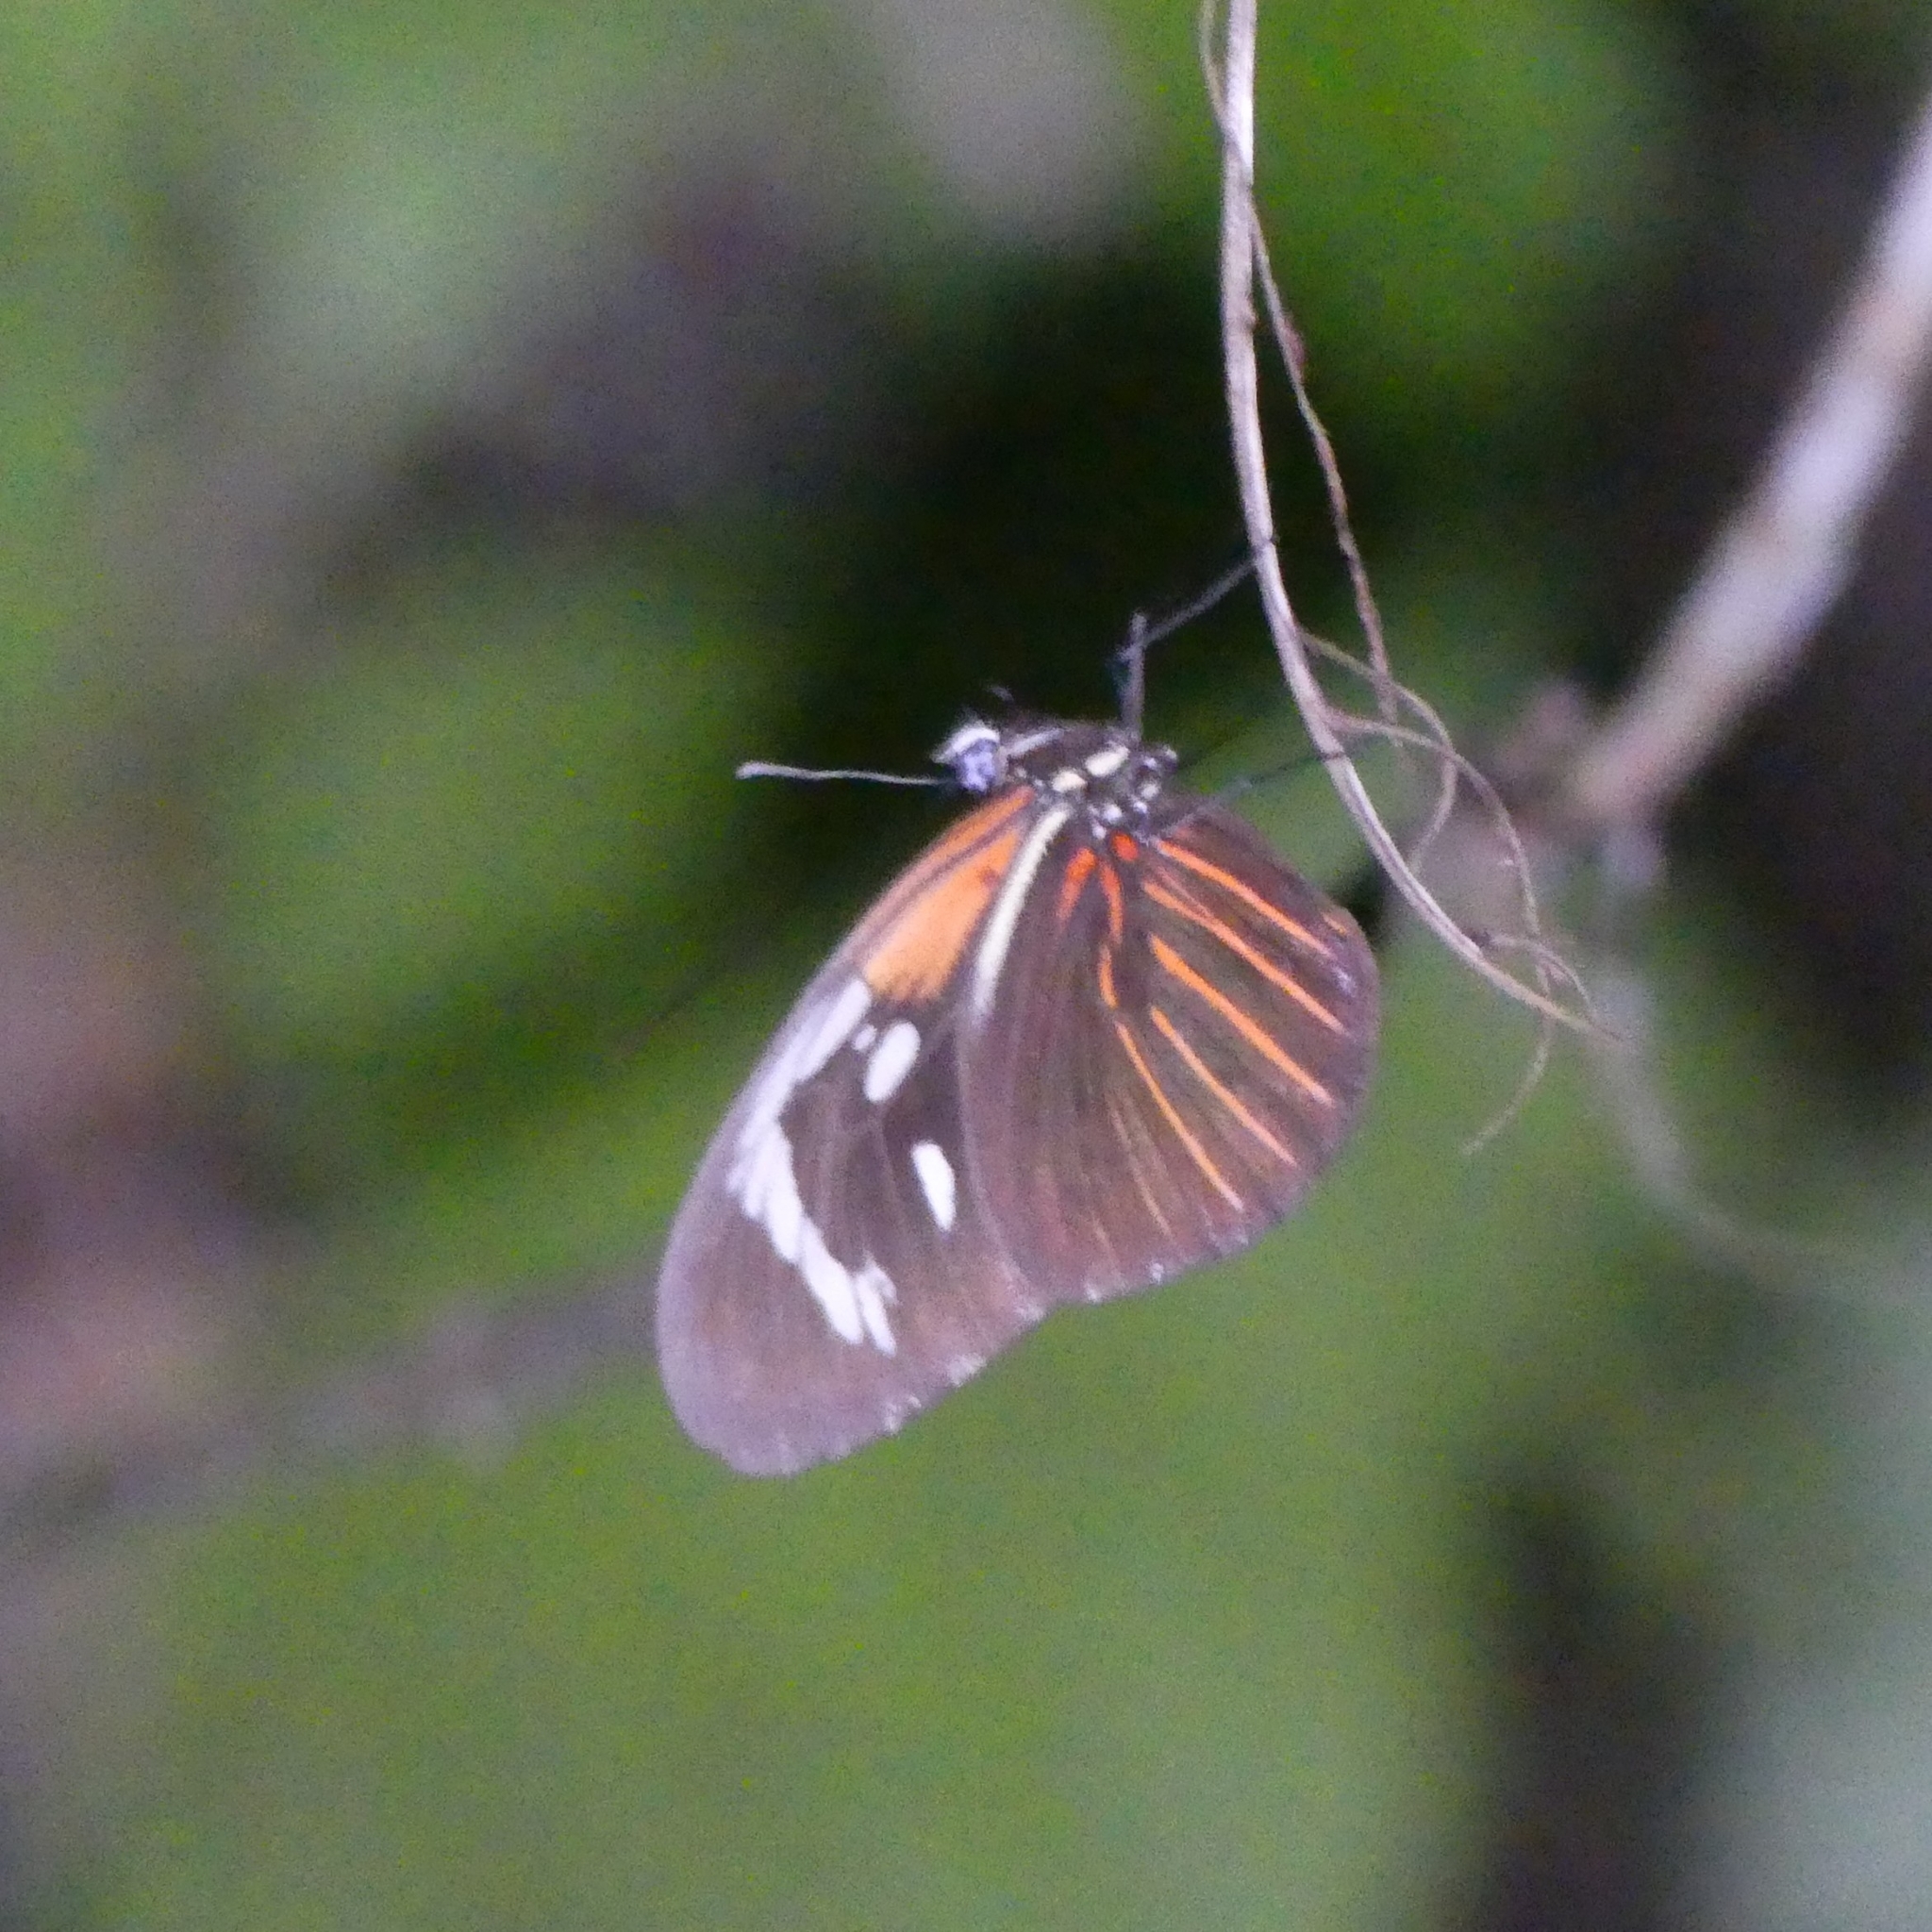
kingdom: Animalia
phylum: Arthropoda
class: Insecta
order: Lepidoptera
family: Nymphalidae
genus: Heliconius
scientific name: Heliconius erato
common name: Common patch longwing
